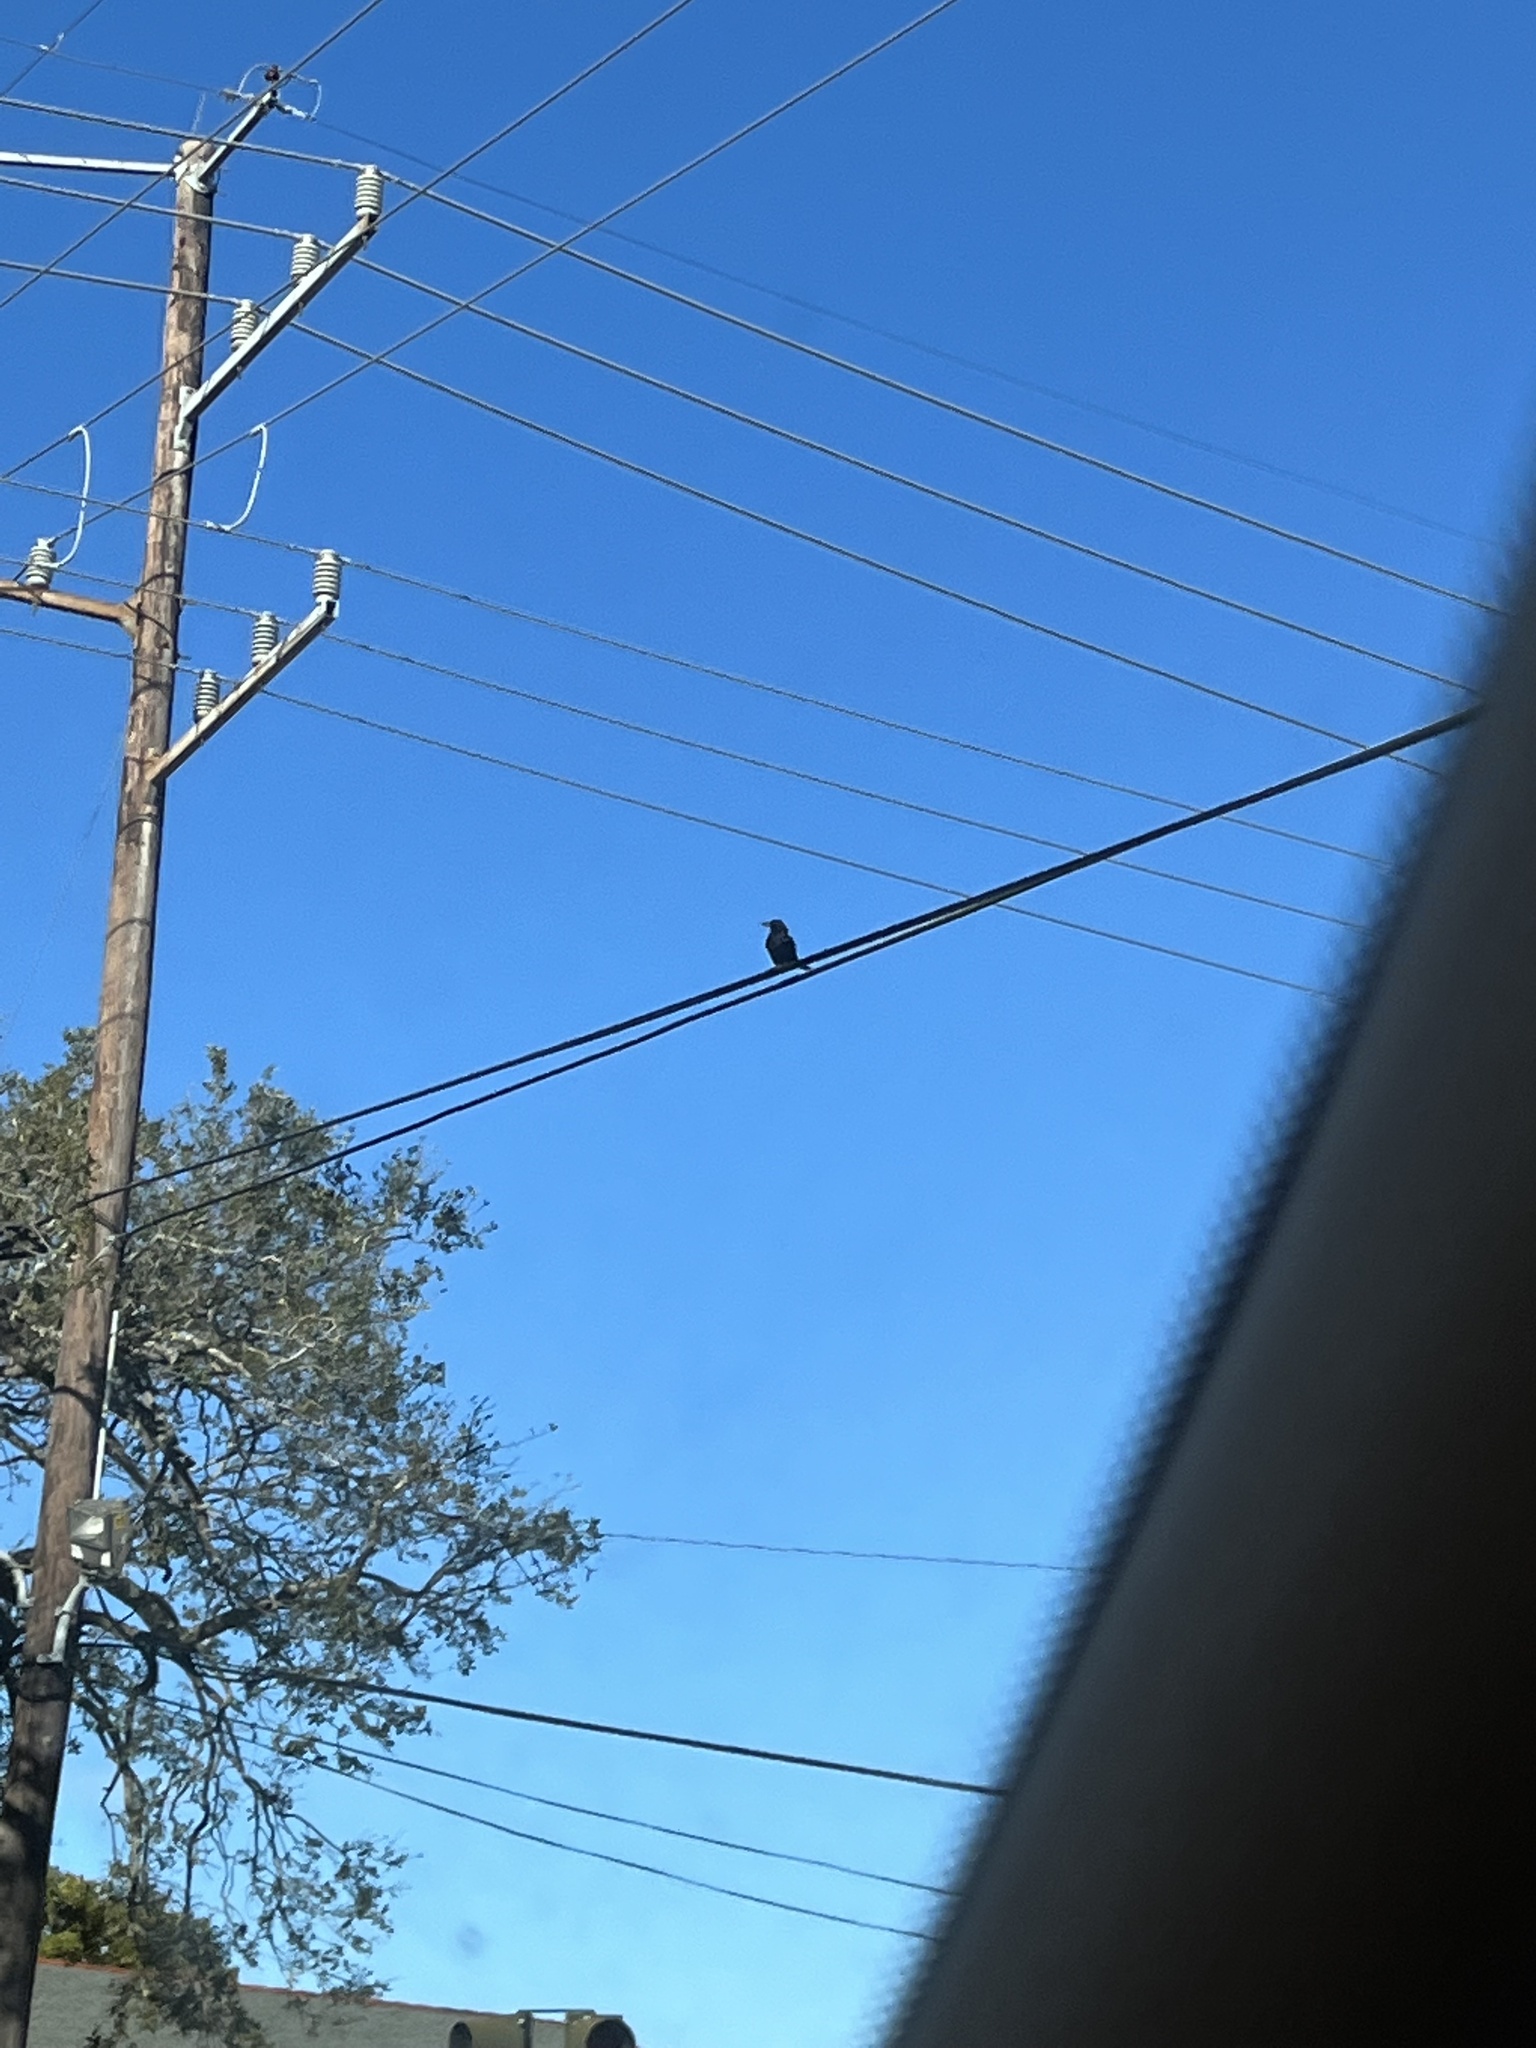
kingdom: Animalia
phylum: Chordata
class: Aves
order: Passeriformes
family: Corvidae
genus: Corvus
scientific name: Corvus brachyrhynchos
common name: American crow
